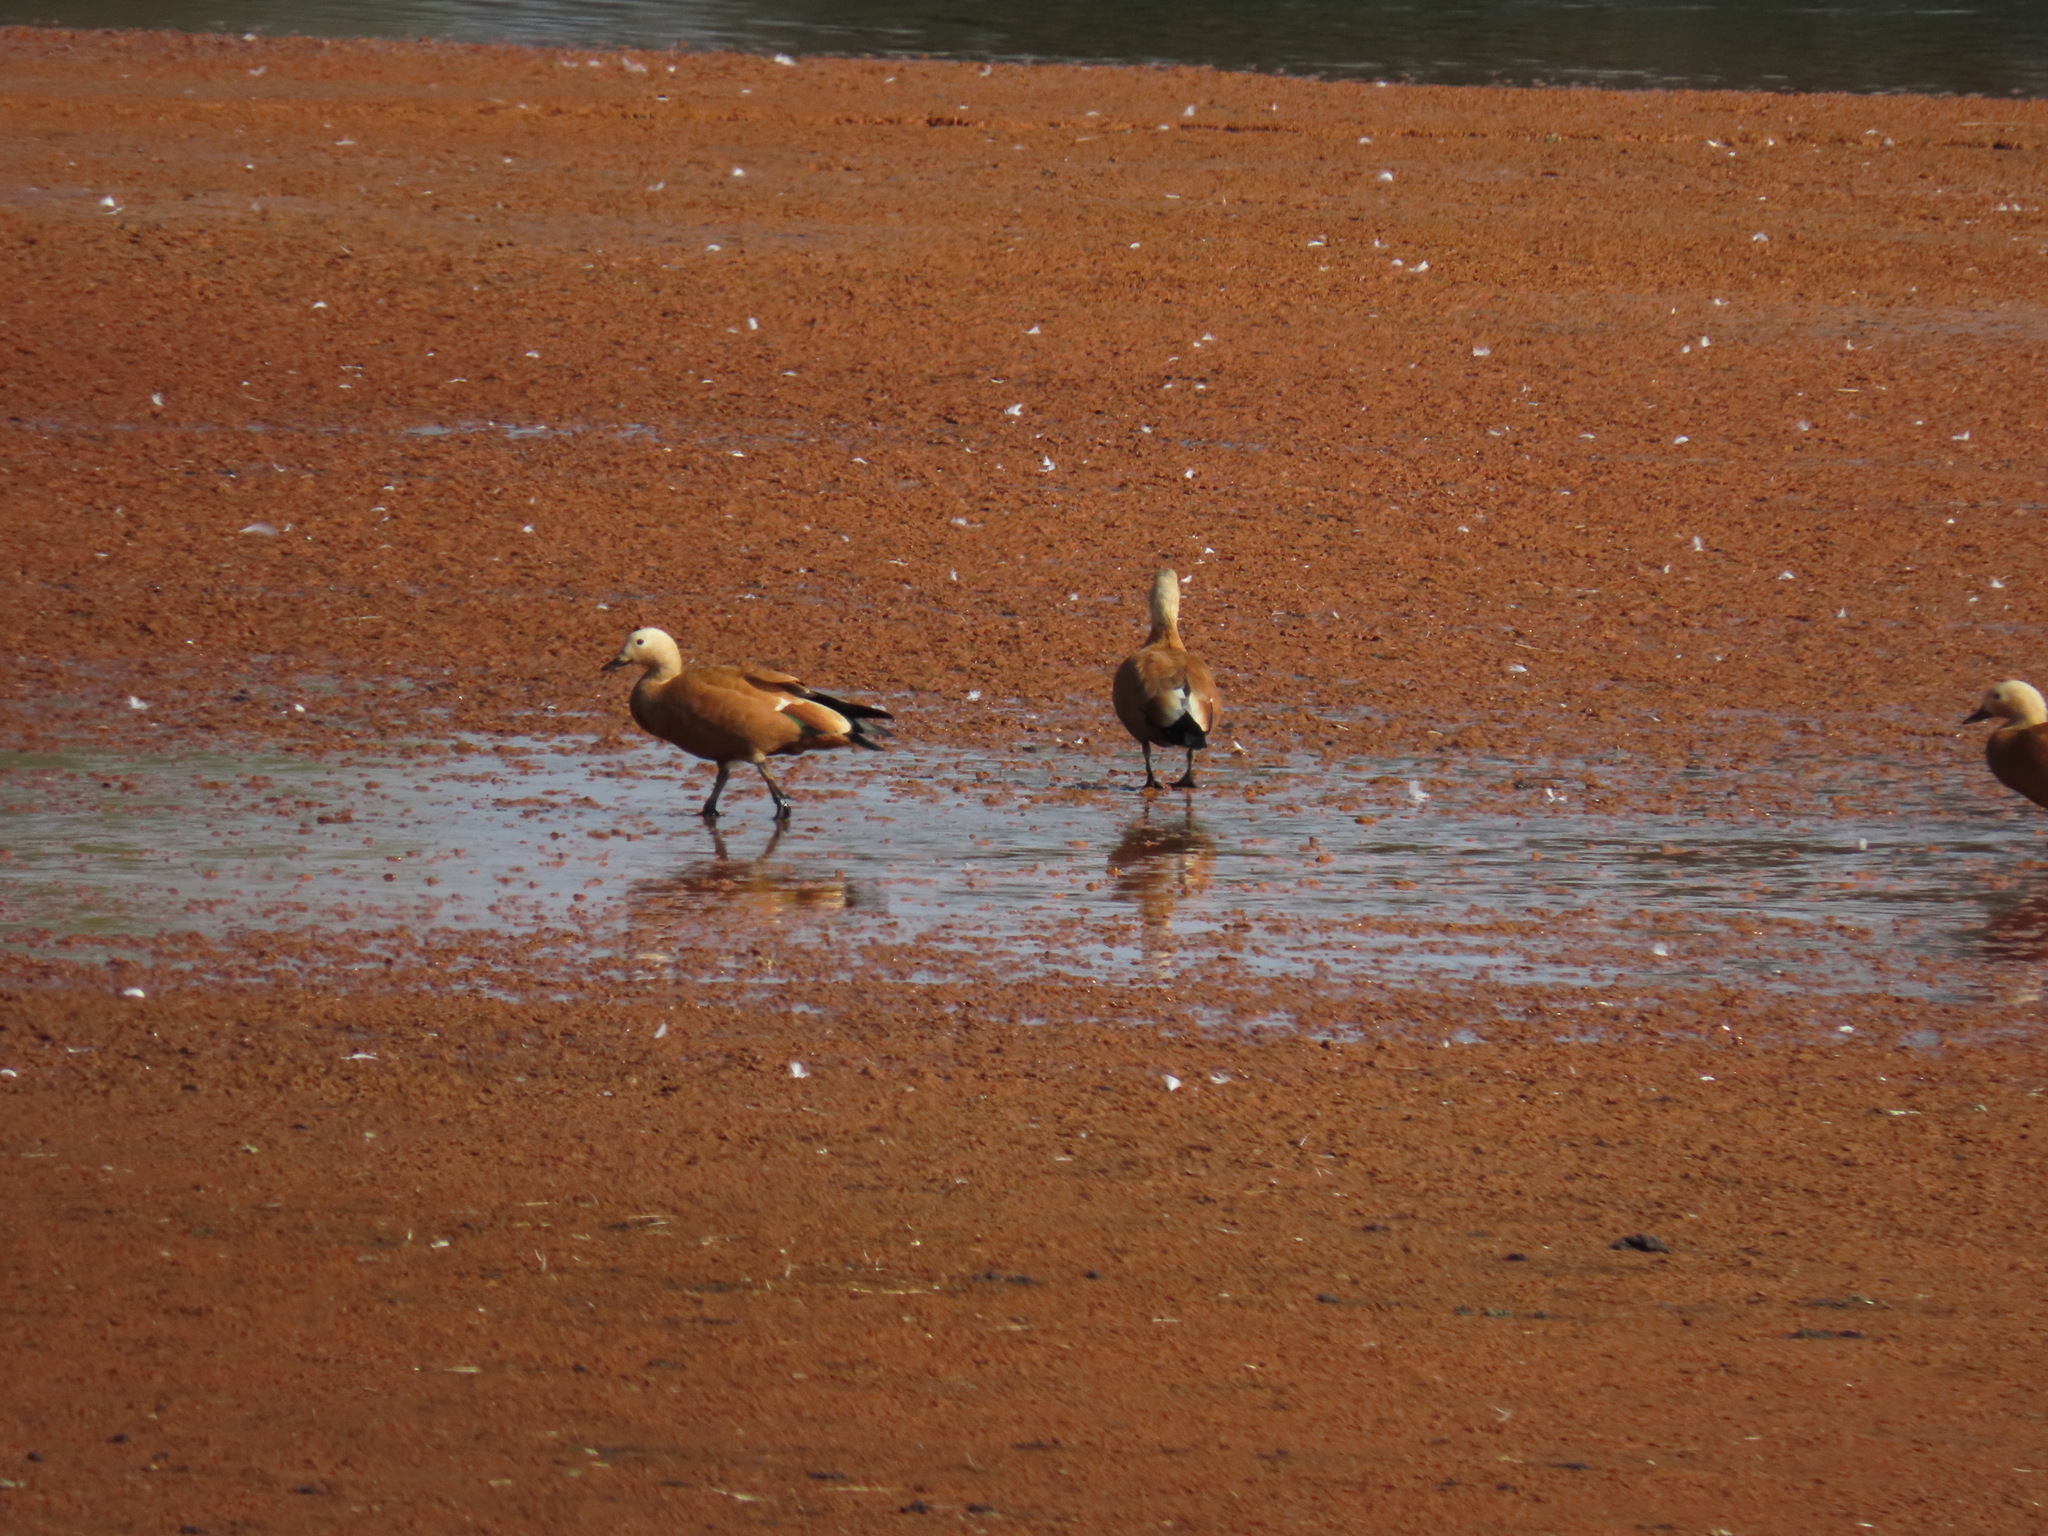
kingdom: Animalia
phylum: Chordata
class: Aves
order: Anseriformes
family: Anatidae
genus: Tadorna
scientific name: Tadorna ferruginea
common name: Ruddy shelduck
